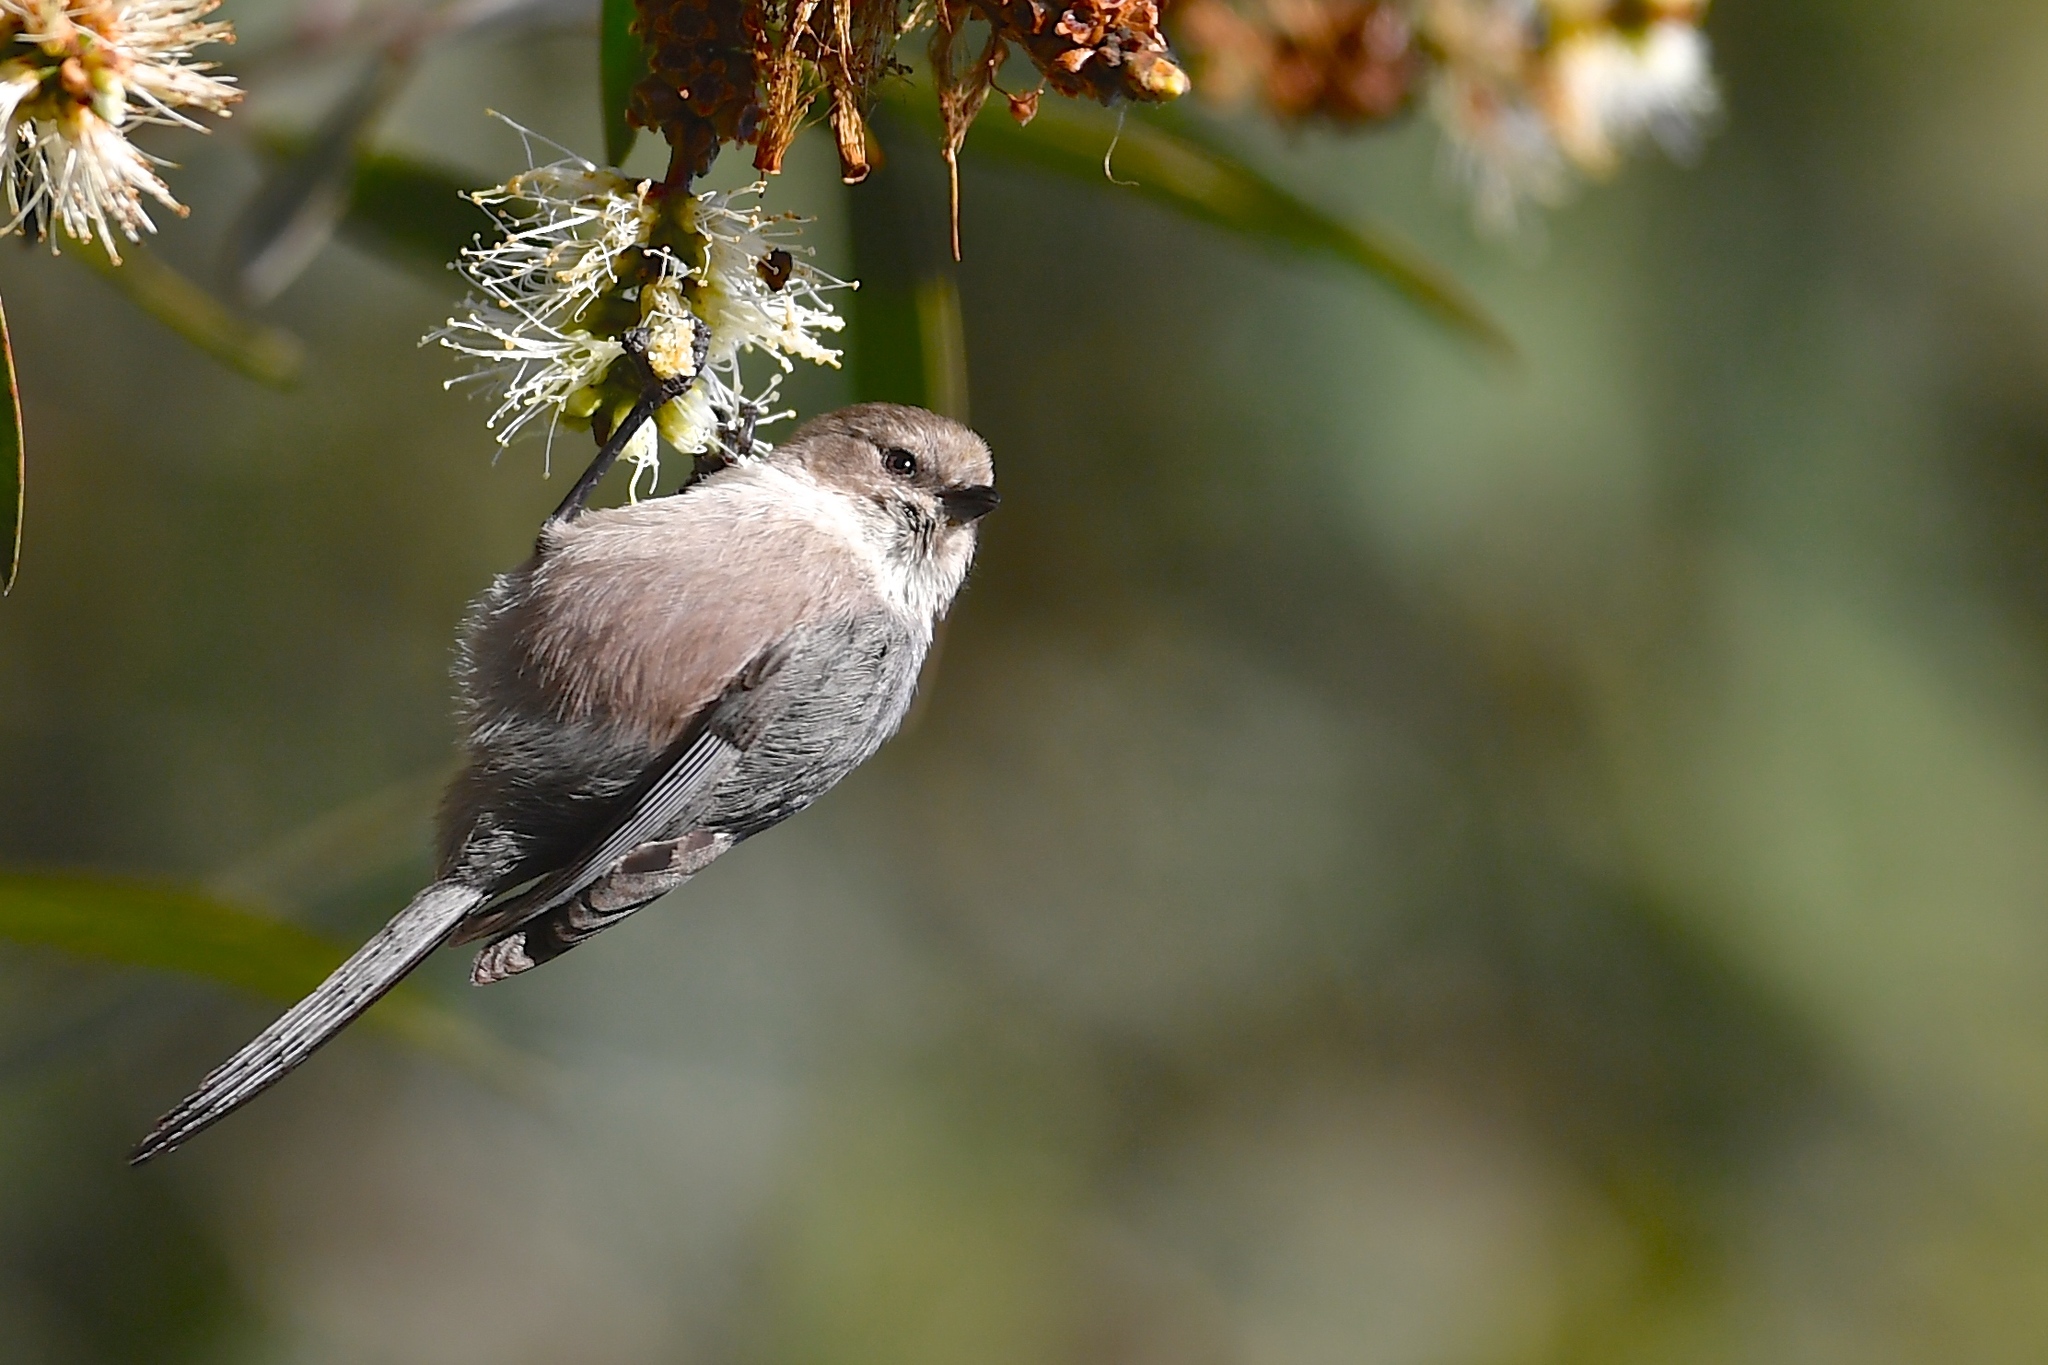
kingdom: Animalia
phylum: Chordata
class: Aves
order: Passeriformes
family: Aegithalidae
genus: Psaltriparus
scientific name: Psaltriparus minimus
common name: American bushtit
